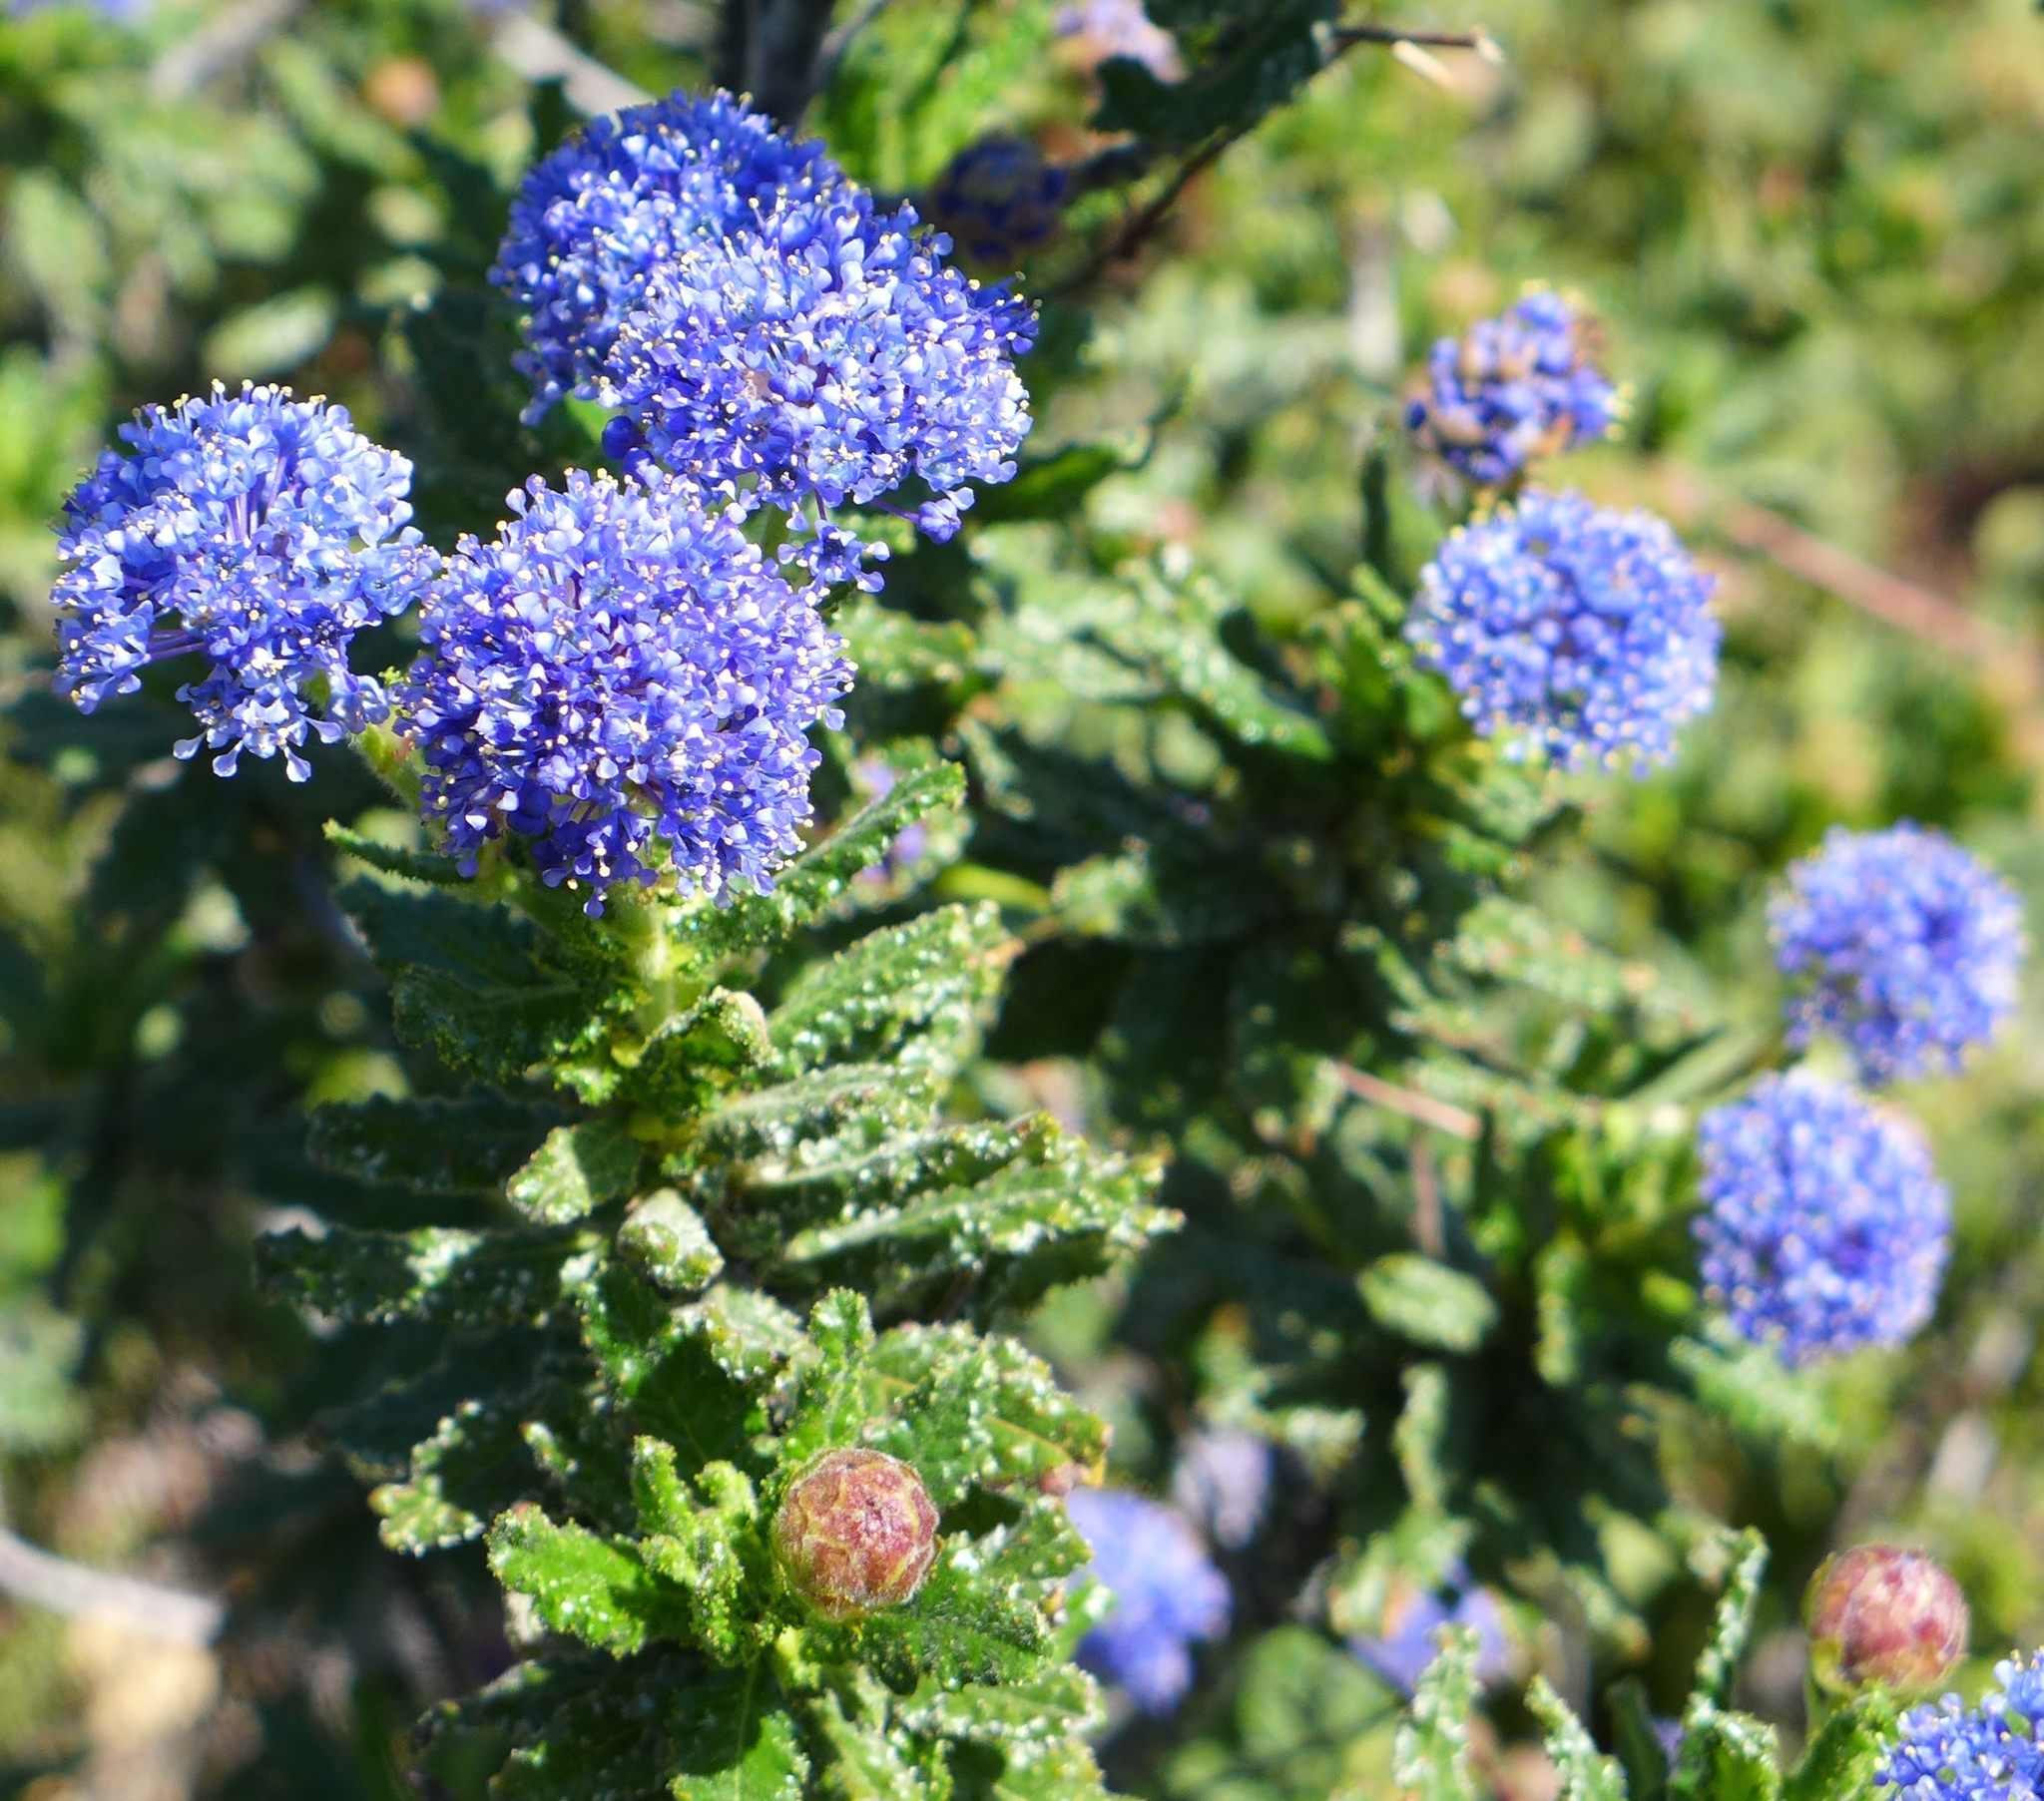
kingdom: Plantae
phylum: Tracheophyta
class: Magnoliopsida
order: Rosales
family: Rhamnaceae
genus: Ceanothus
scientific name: Ceanothus papillosus
